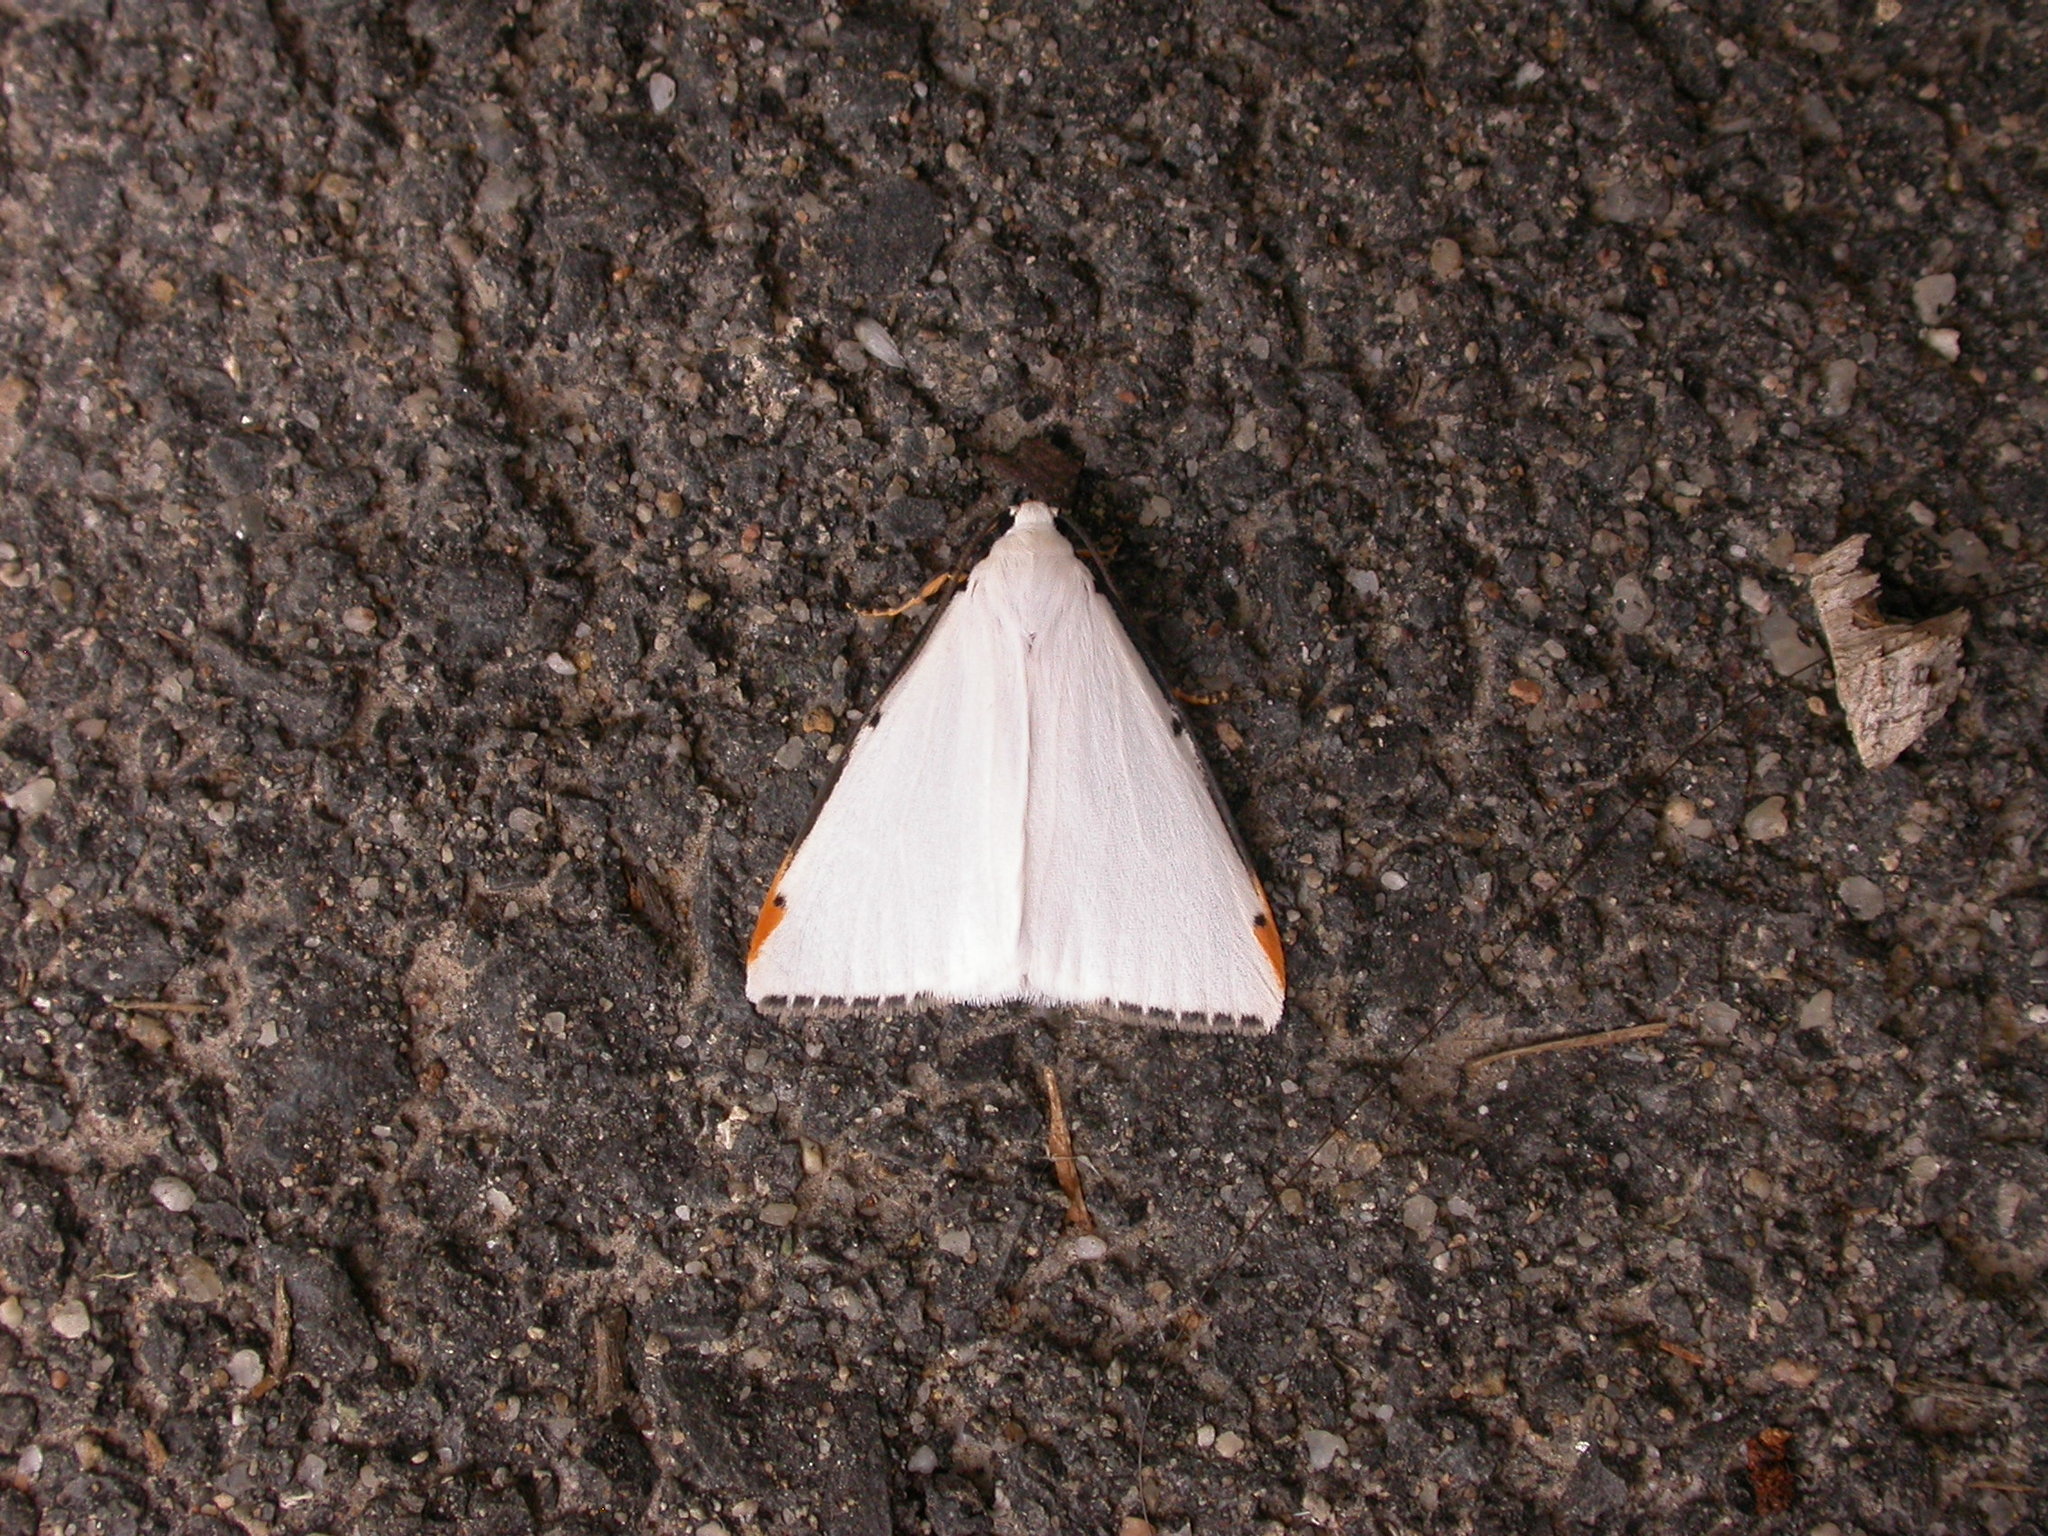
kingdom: Animalia
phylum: Arthropoda
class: Insecta
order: Lepidoptera
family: Erebidae
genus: Termessa
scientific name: Termessa nivosa
